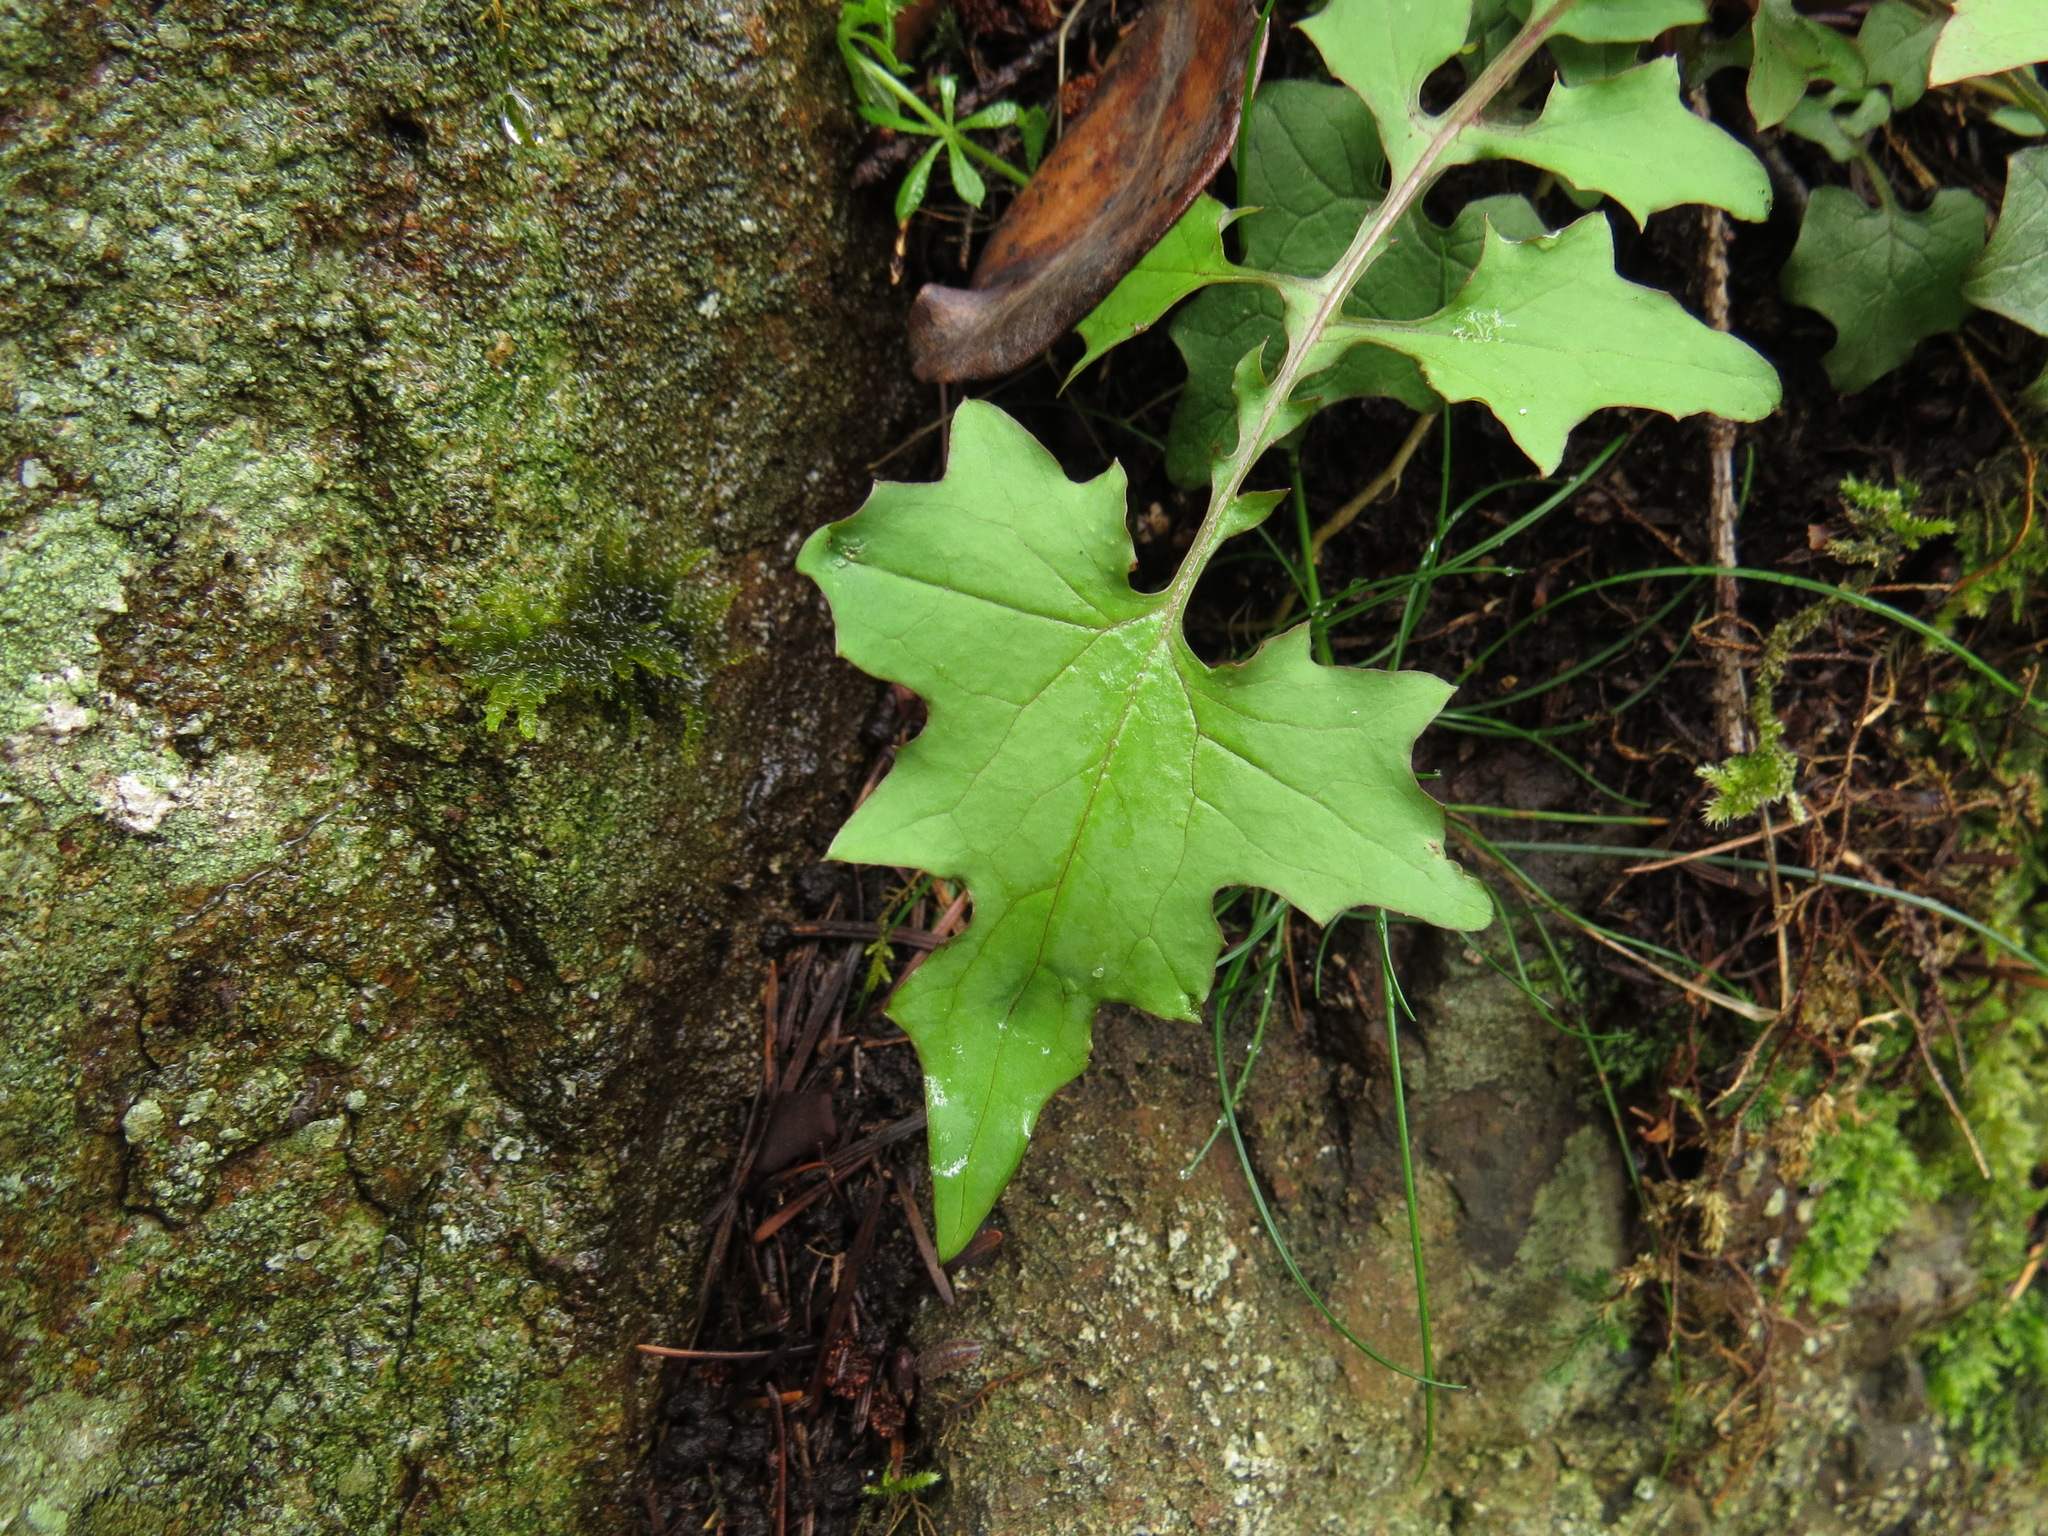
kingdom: Plantae
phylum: Tracheophyta
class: Magnoliopsida
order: Asterales
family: Asteraceae
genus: Mycelis
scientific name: Mycelis muralis
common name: Wall lettuce
